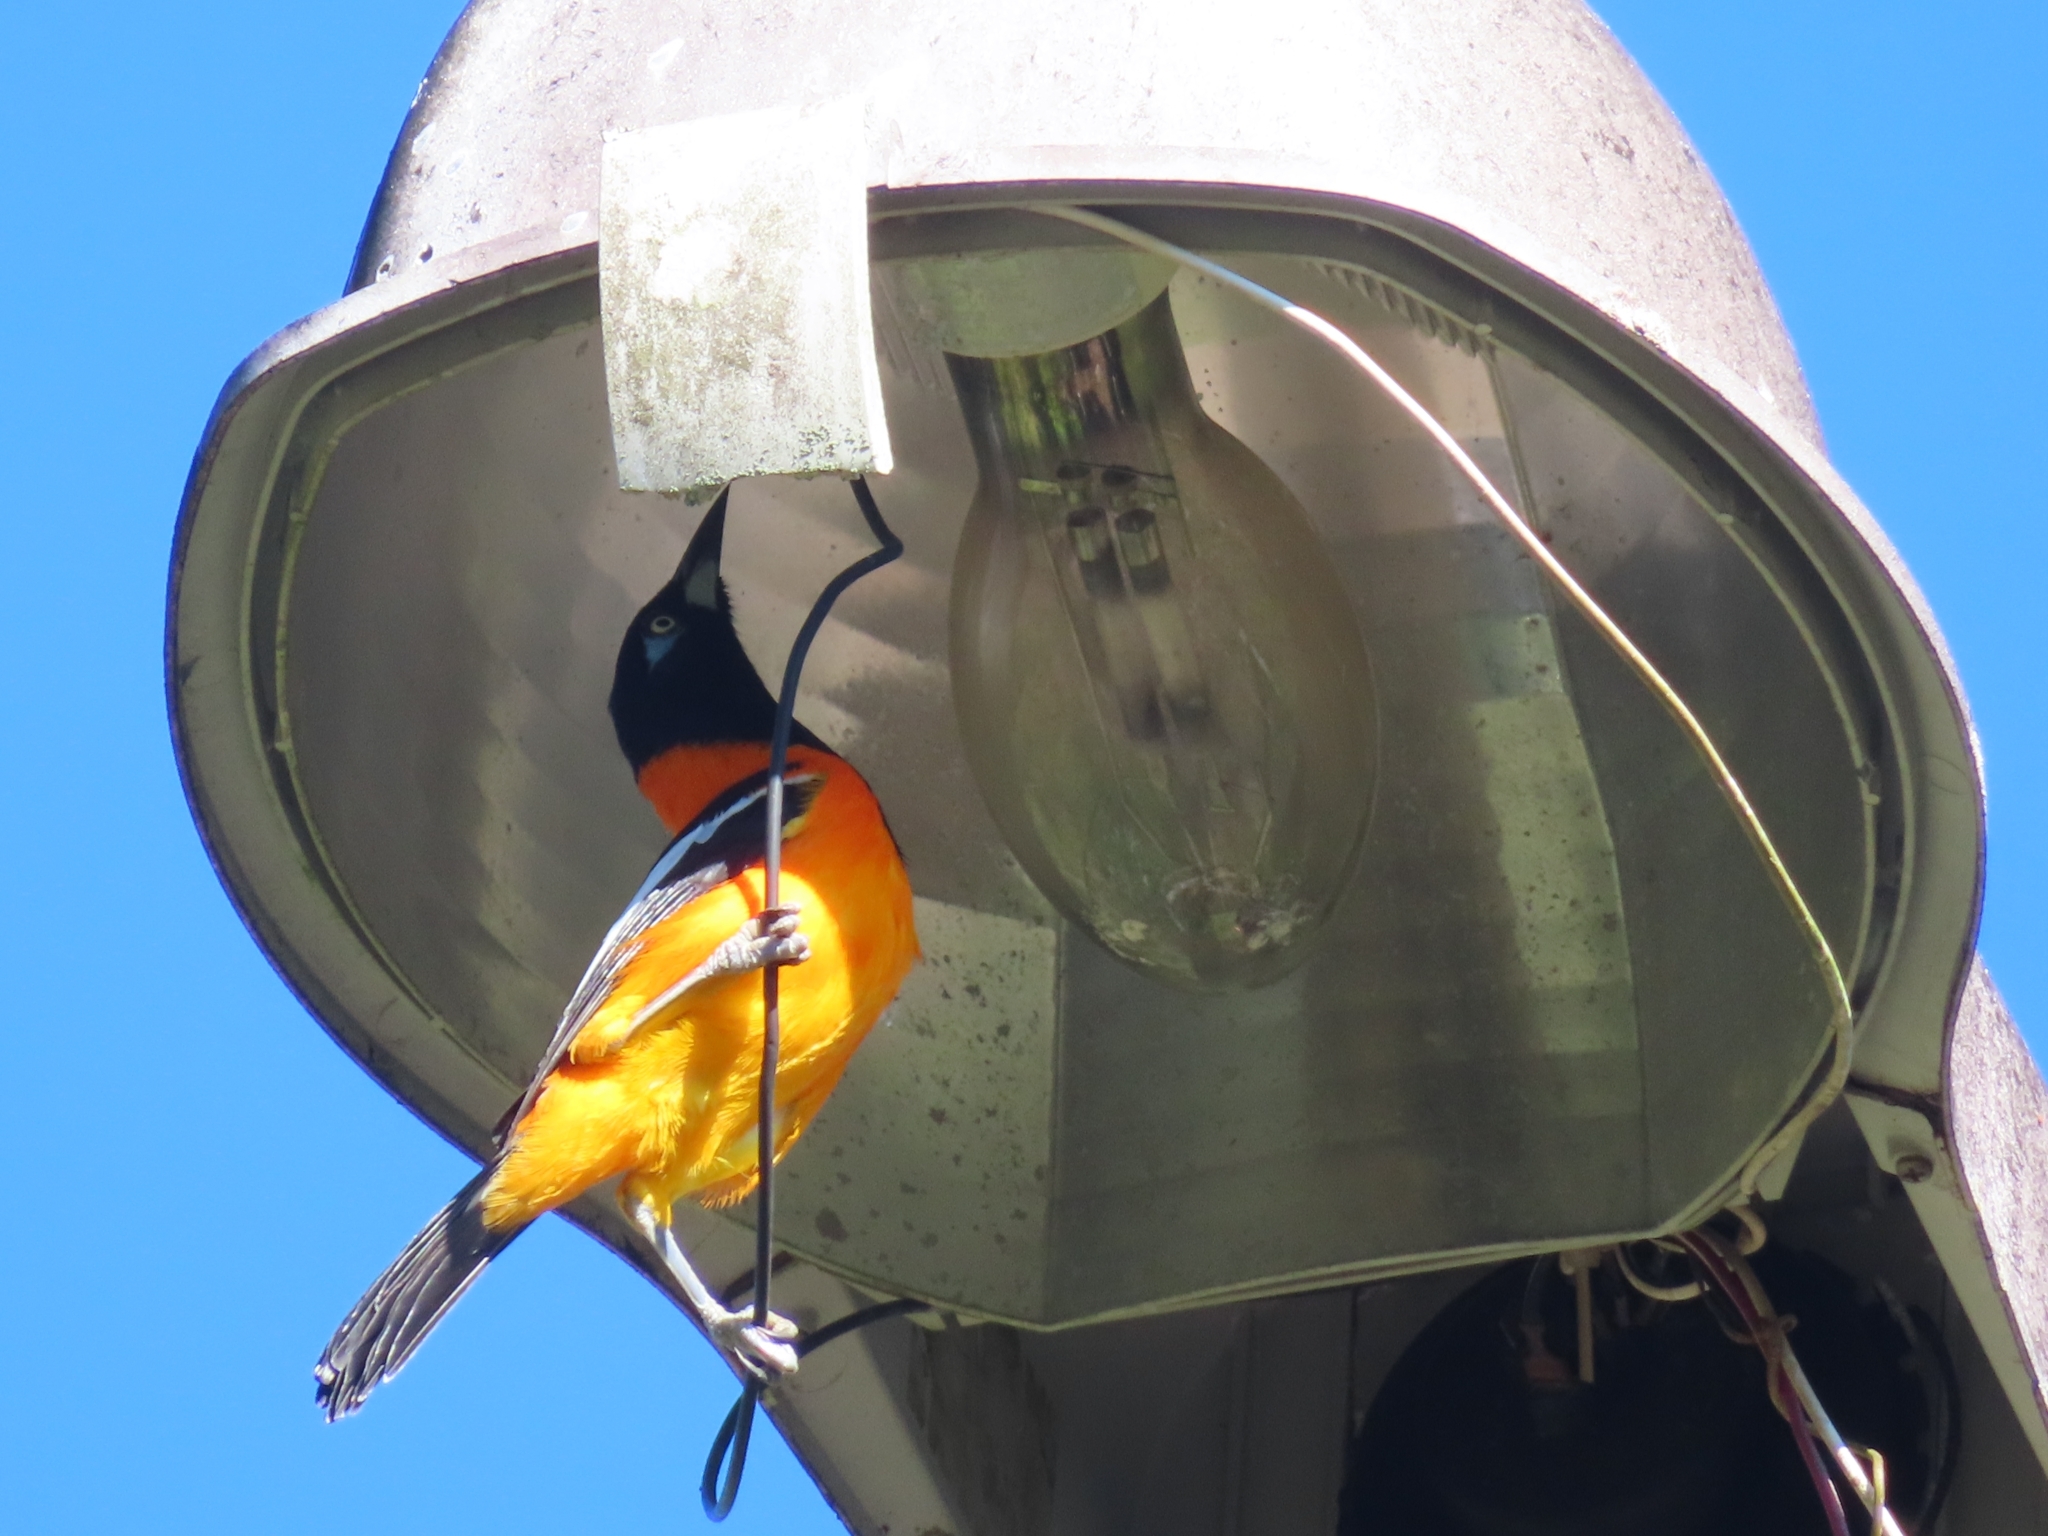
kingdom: Animalia
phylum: Chordata
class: Aves
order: Passeriformes
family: Icteridae
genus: Icterus
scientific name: Icterus icterus
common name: Venezuelan troupial
